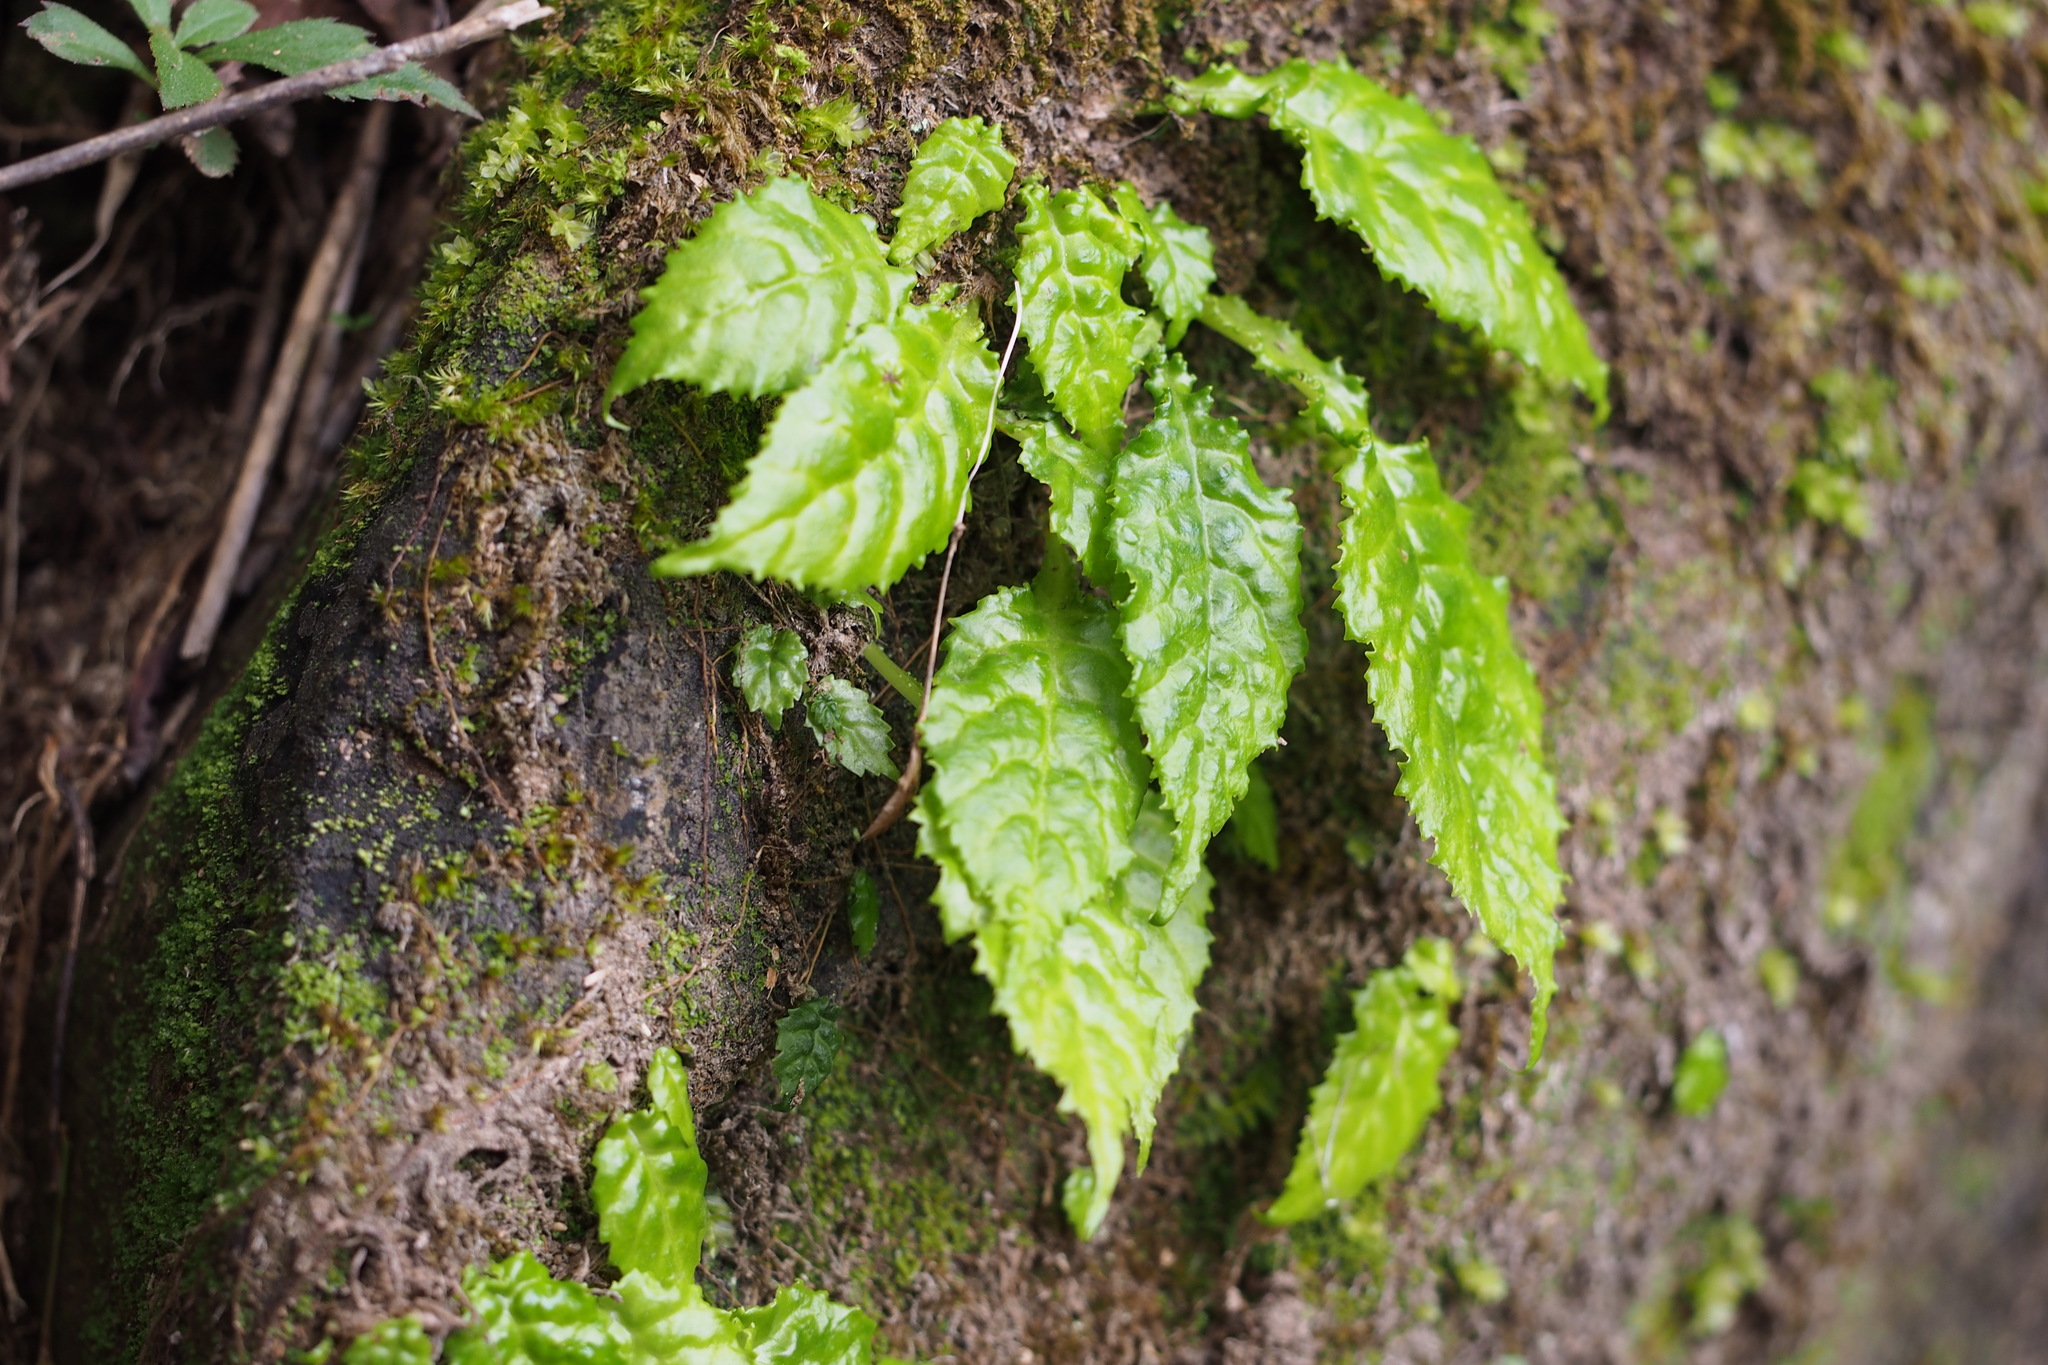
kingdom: Plantae
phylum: Tracheophyta
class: Magnoliopsida
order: Lamiales
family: Gesneriaceae
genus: Conandron
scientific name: Conandron ramondioides
